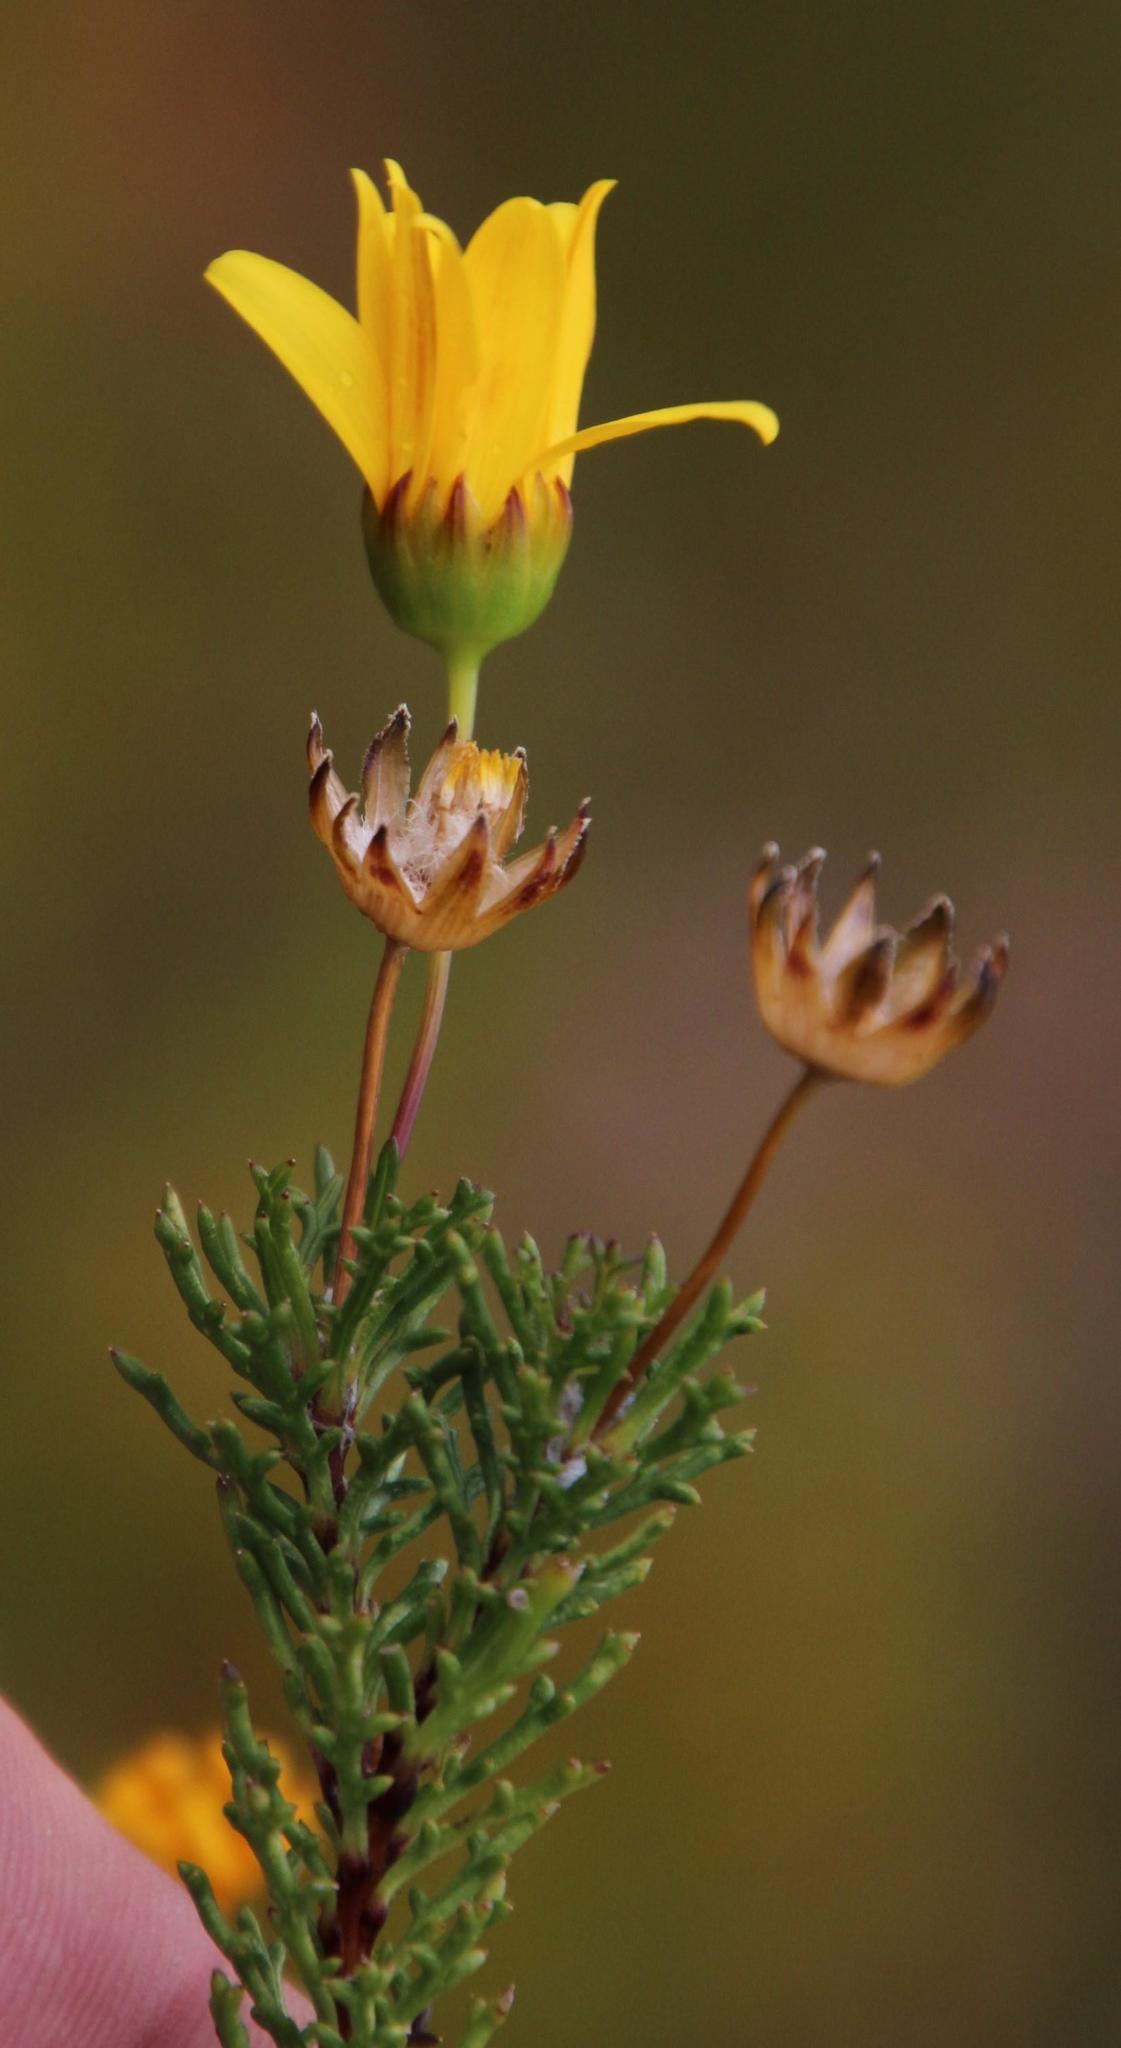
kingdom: Plantae
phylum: Tracheophyta
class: Magnoliopsida
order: Asterales
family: Asteraceae
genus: Euryops
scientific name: Euryops abrotanifolius
